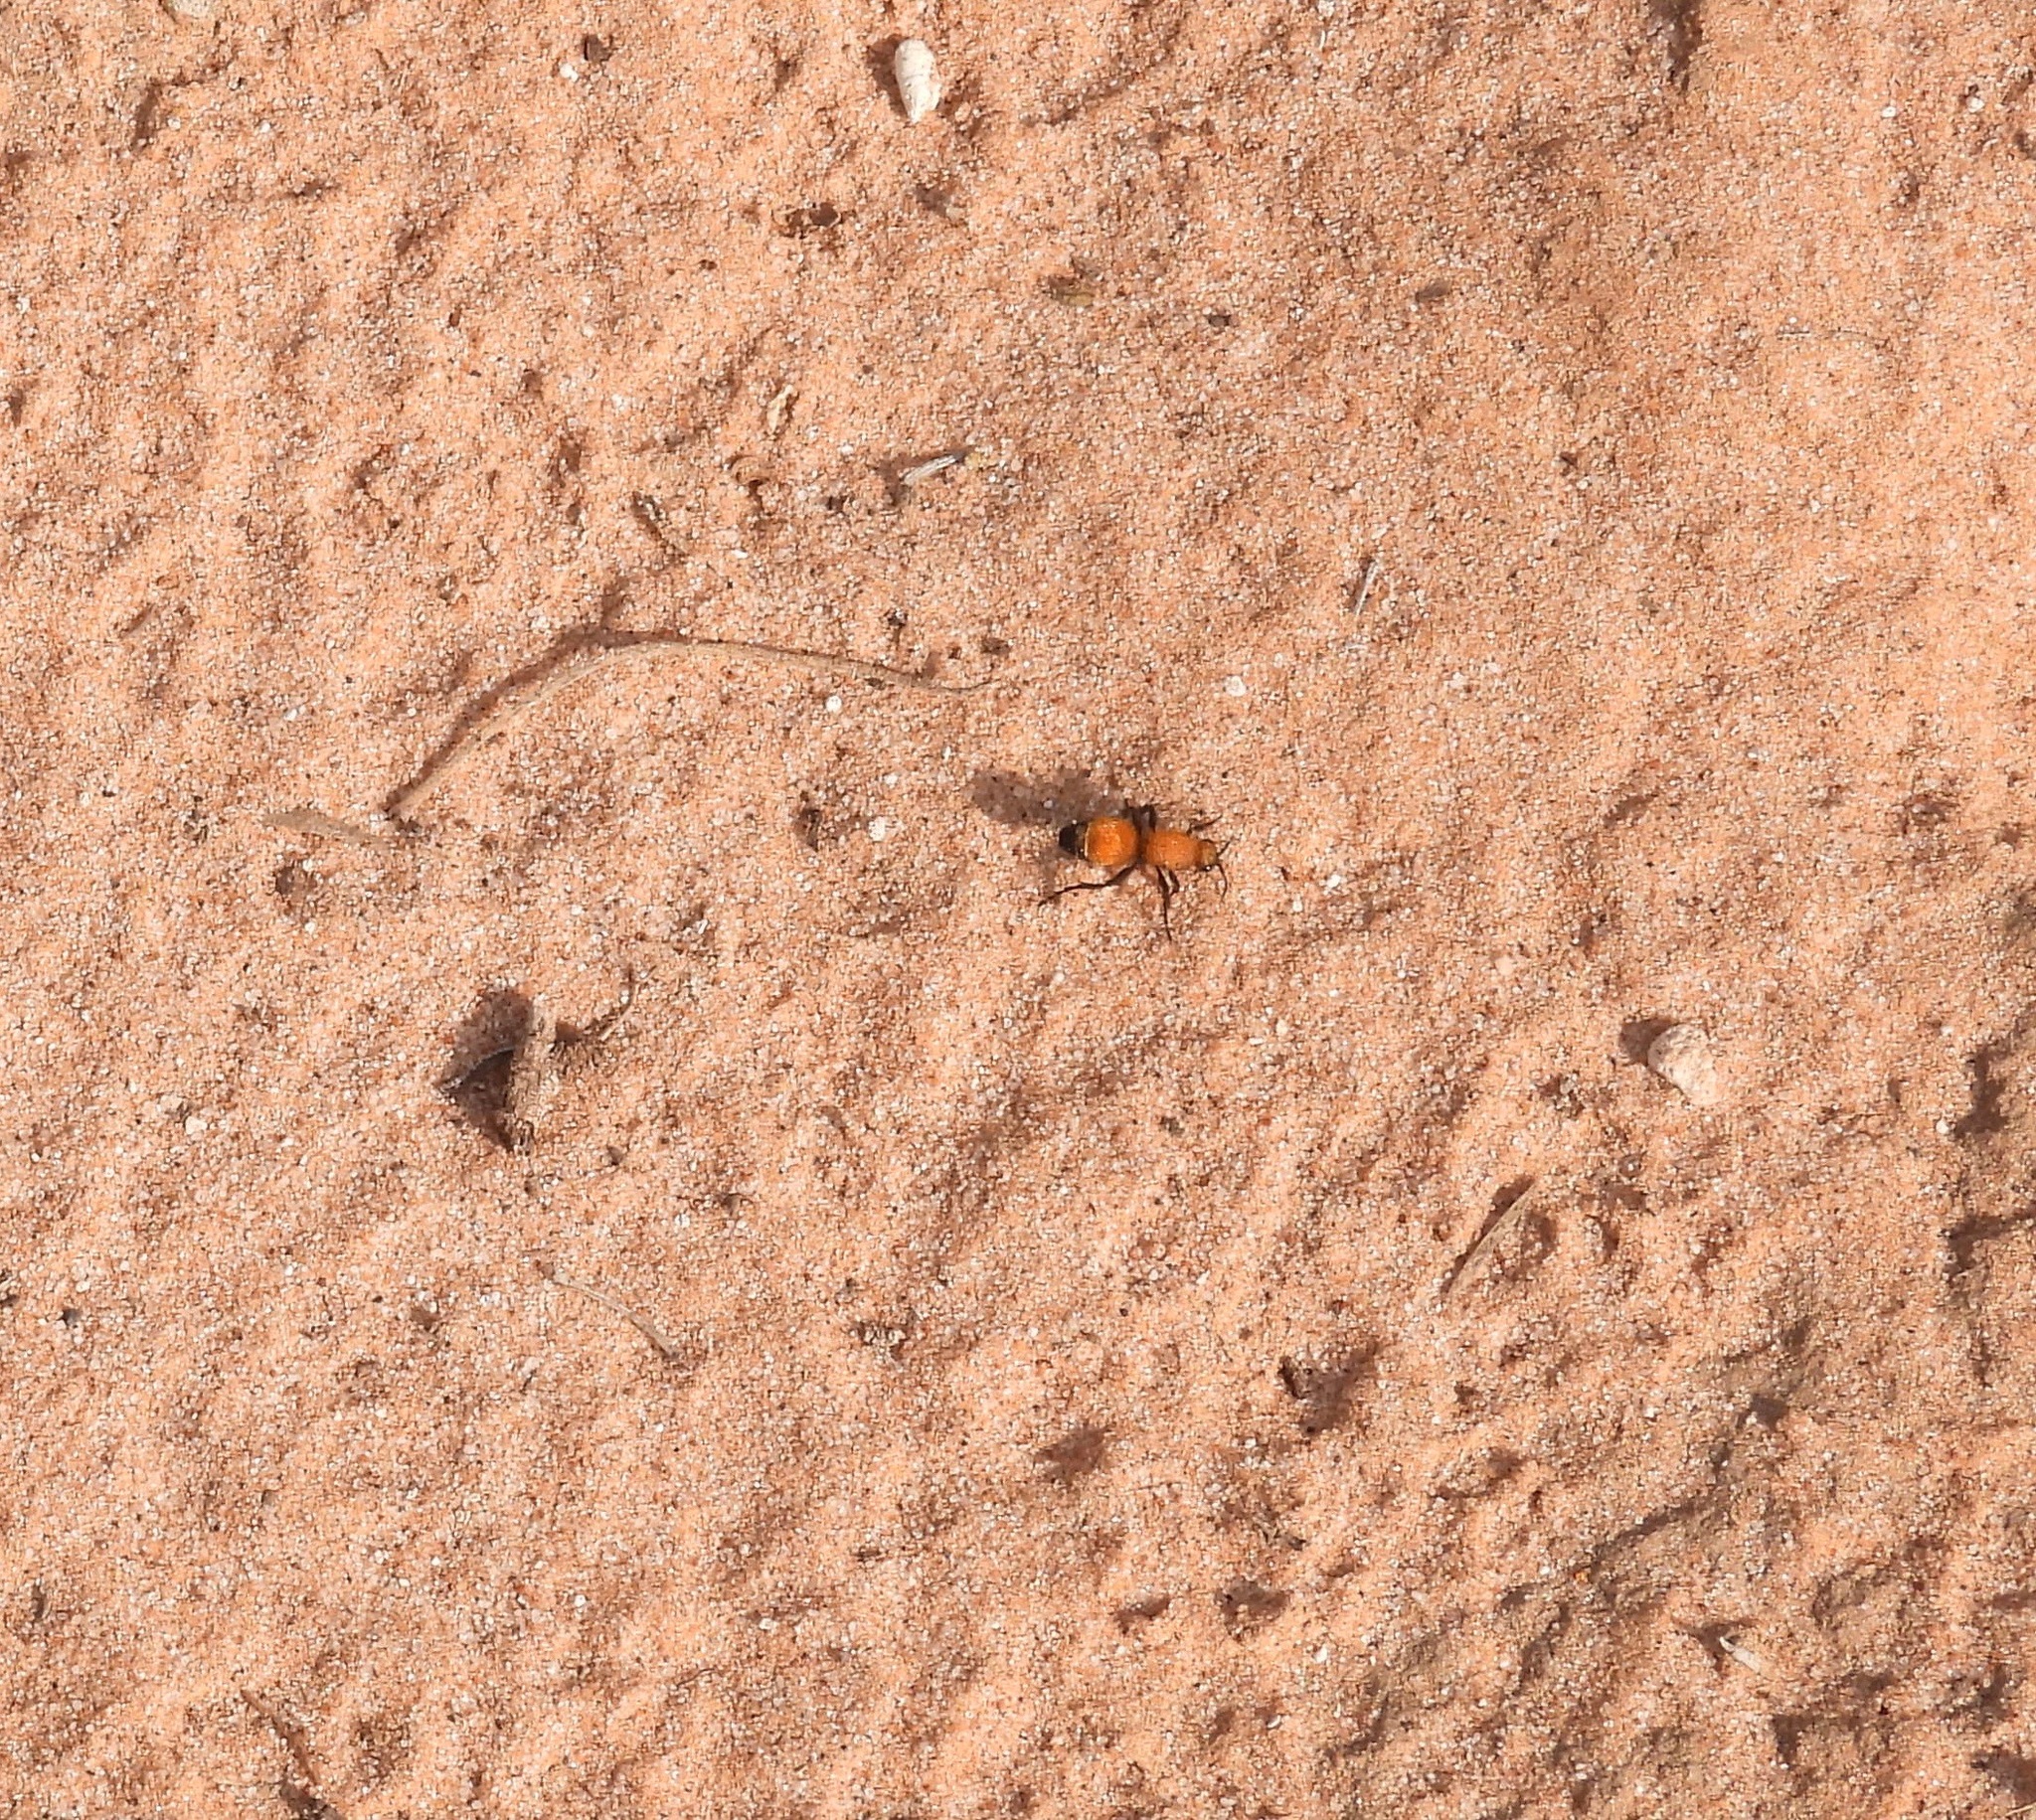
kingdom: Animalia
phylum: Arthropoda
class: Insecta
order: Hymenoptera
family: Mutillidae
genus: Dasymutilla
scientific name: Dasymutilla
